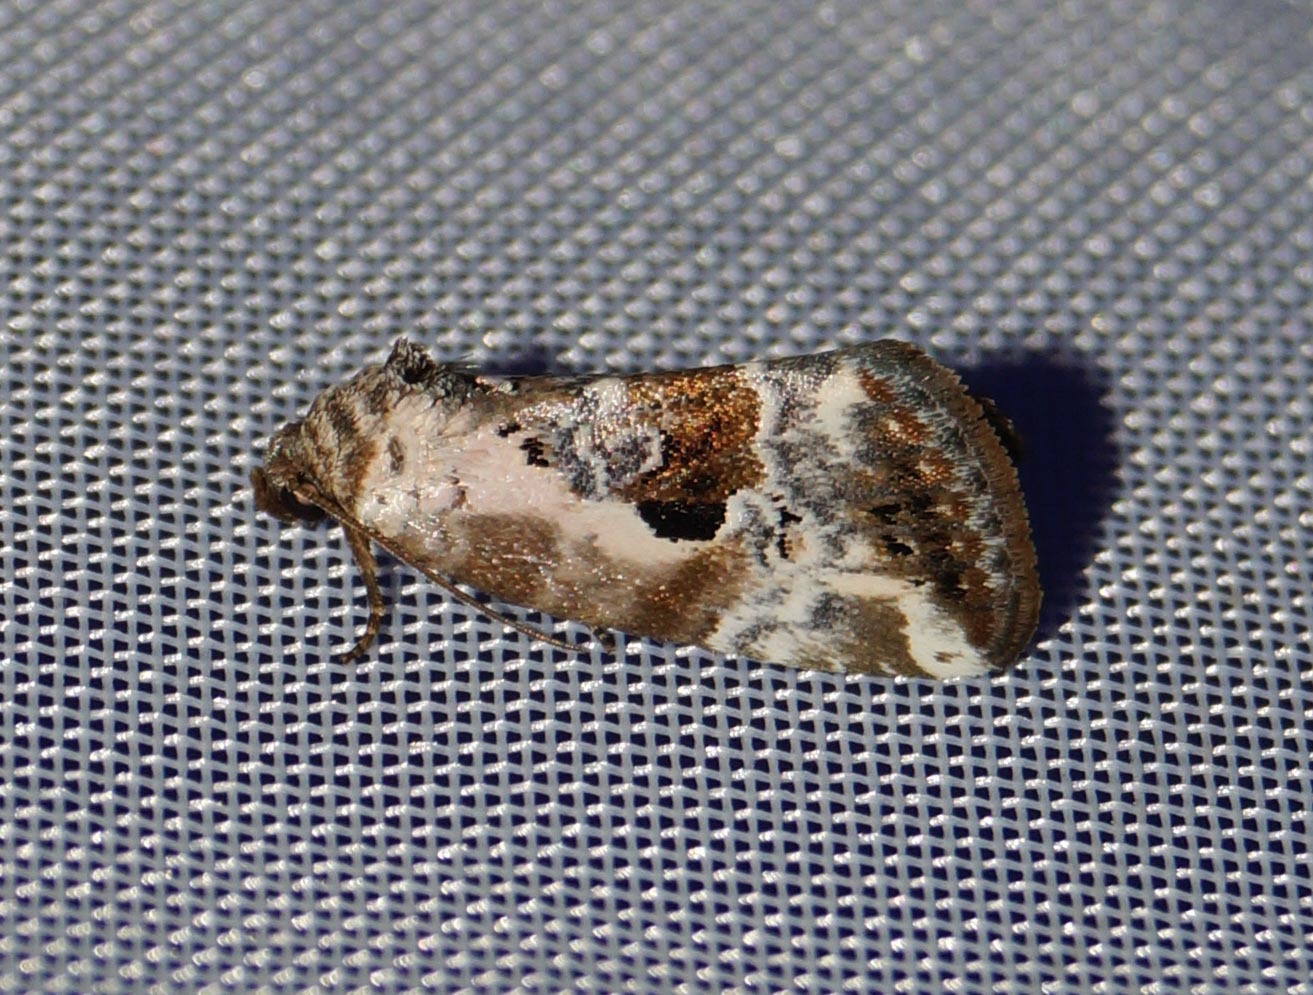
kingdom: Animalia
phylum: Arthropoda
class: Insecta
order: Lepidoptera
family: Noctuidae
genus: Elaphria
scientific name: Elaphria venustula
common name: Rosy marbled
